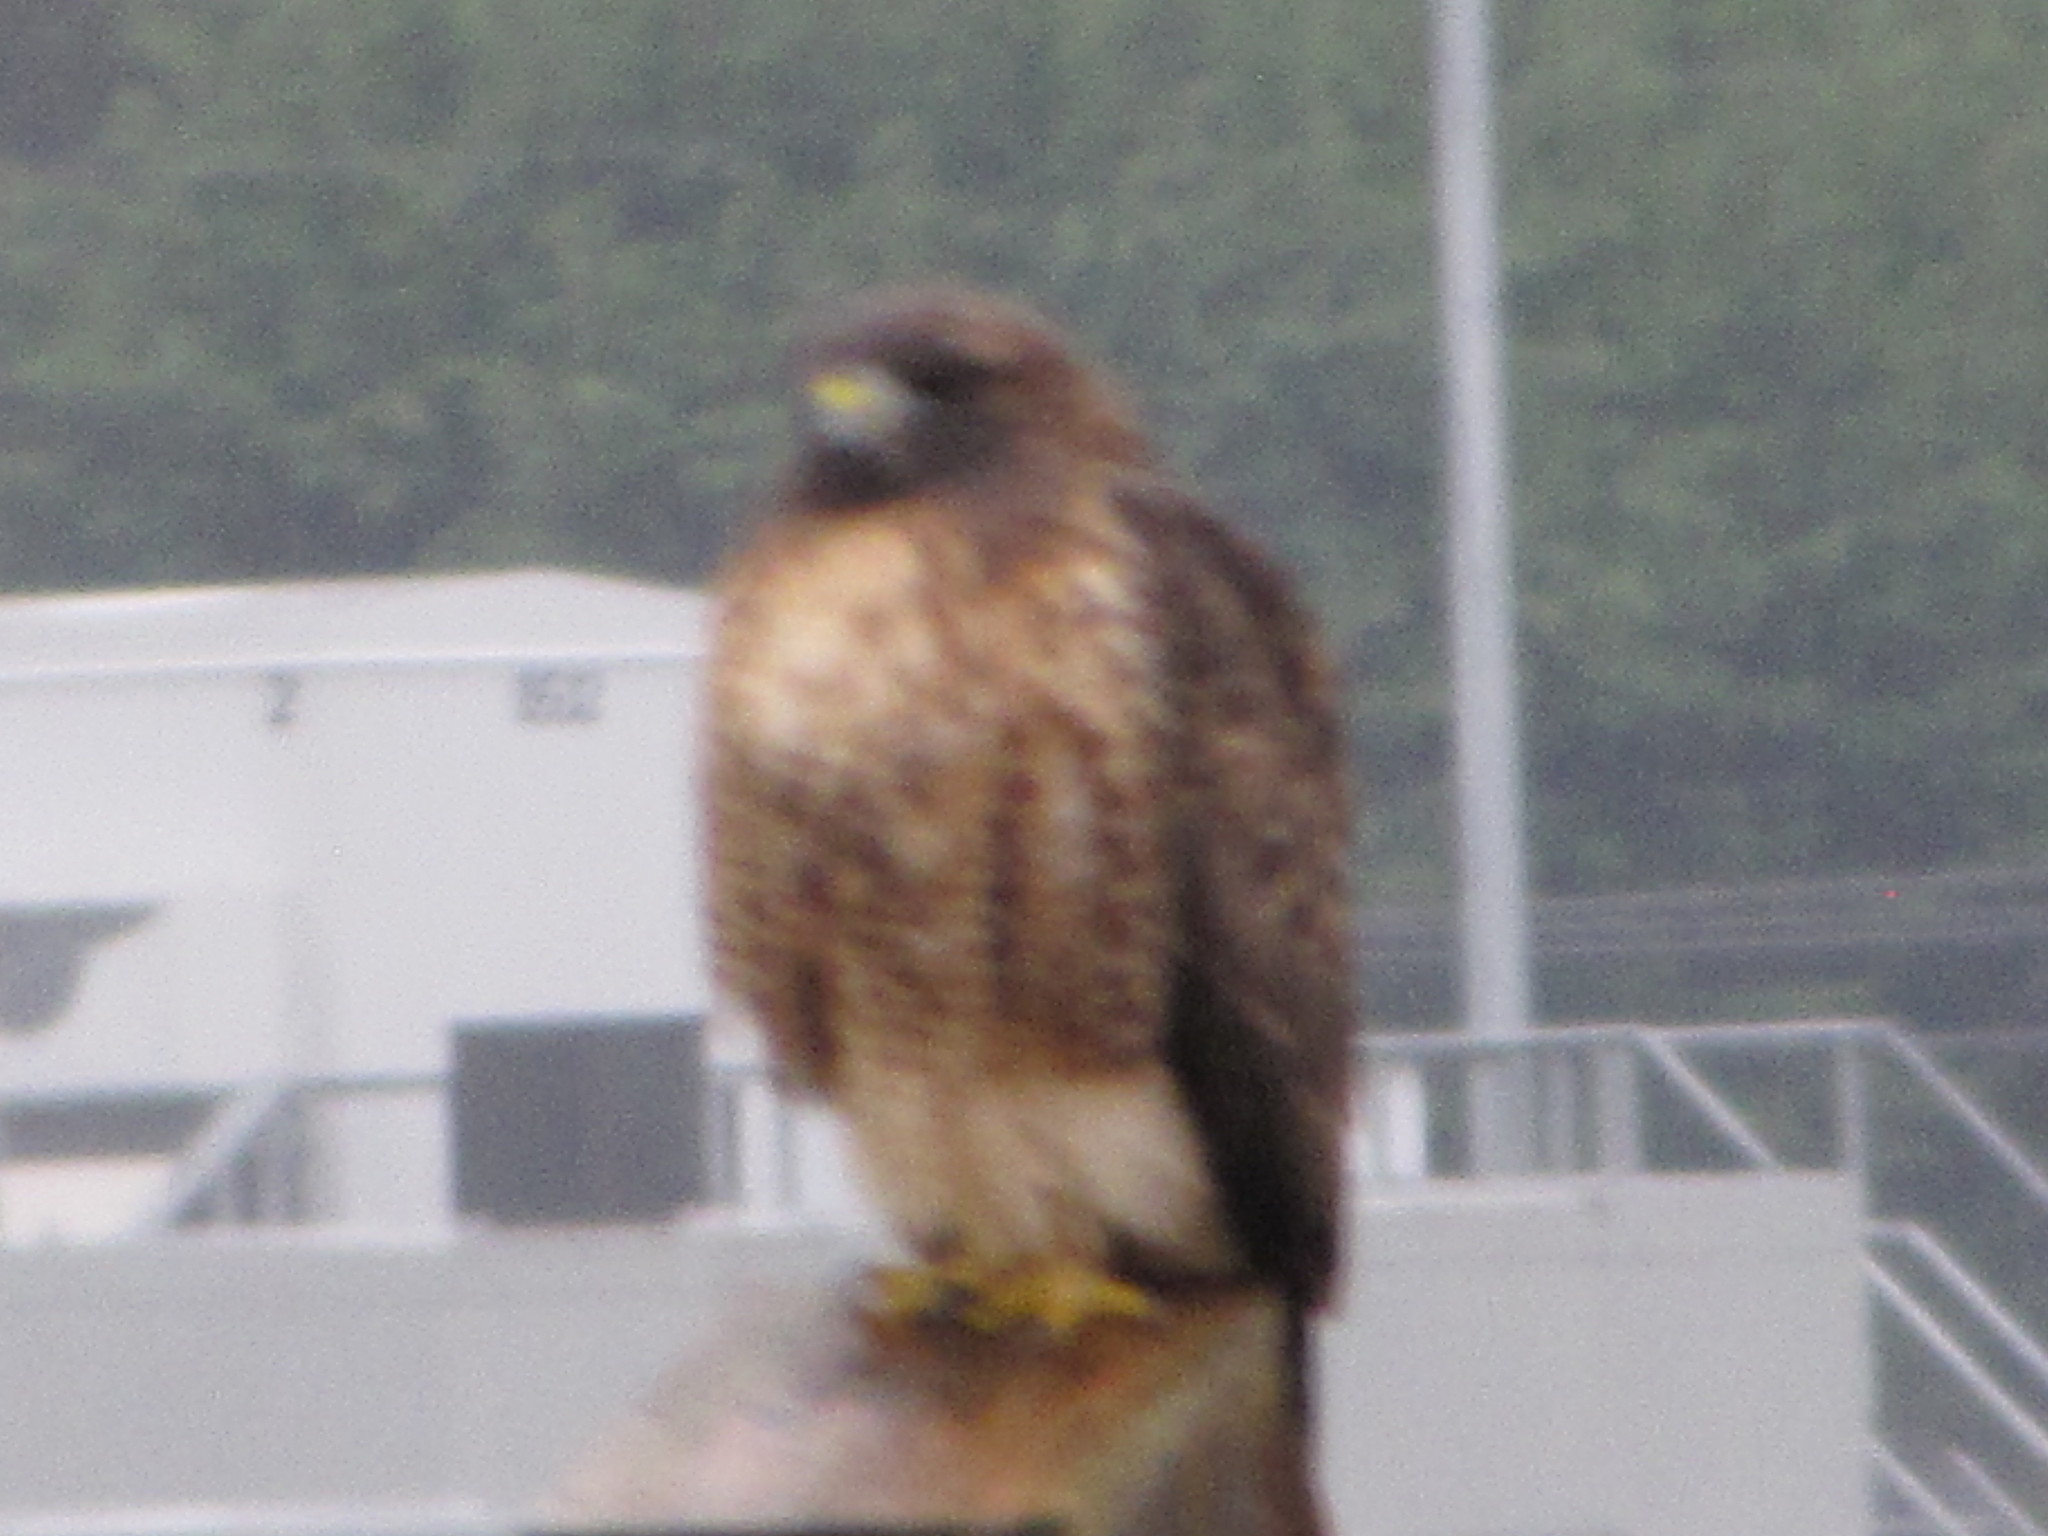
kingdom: Animalia
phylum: Chordata
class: Aves
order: Accipitriformes
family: Accipitridae
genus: Buteo
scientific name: Buteo jamaicensis
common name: Red-tailed hawk
